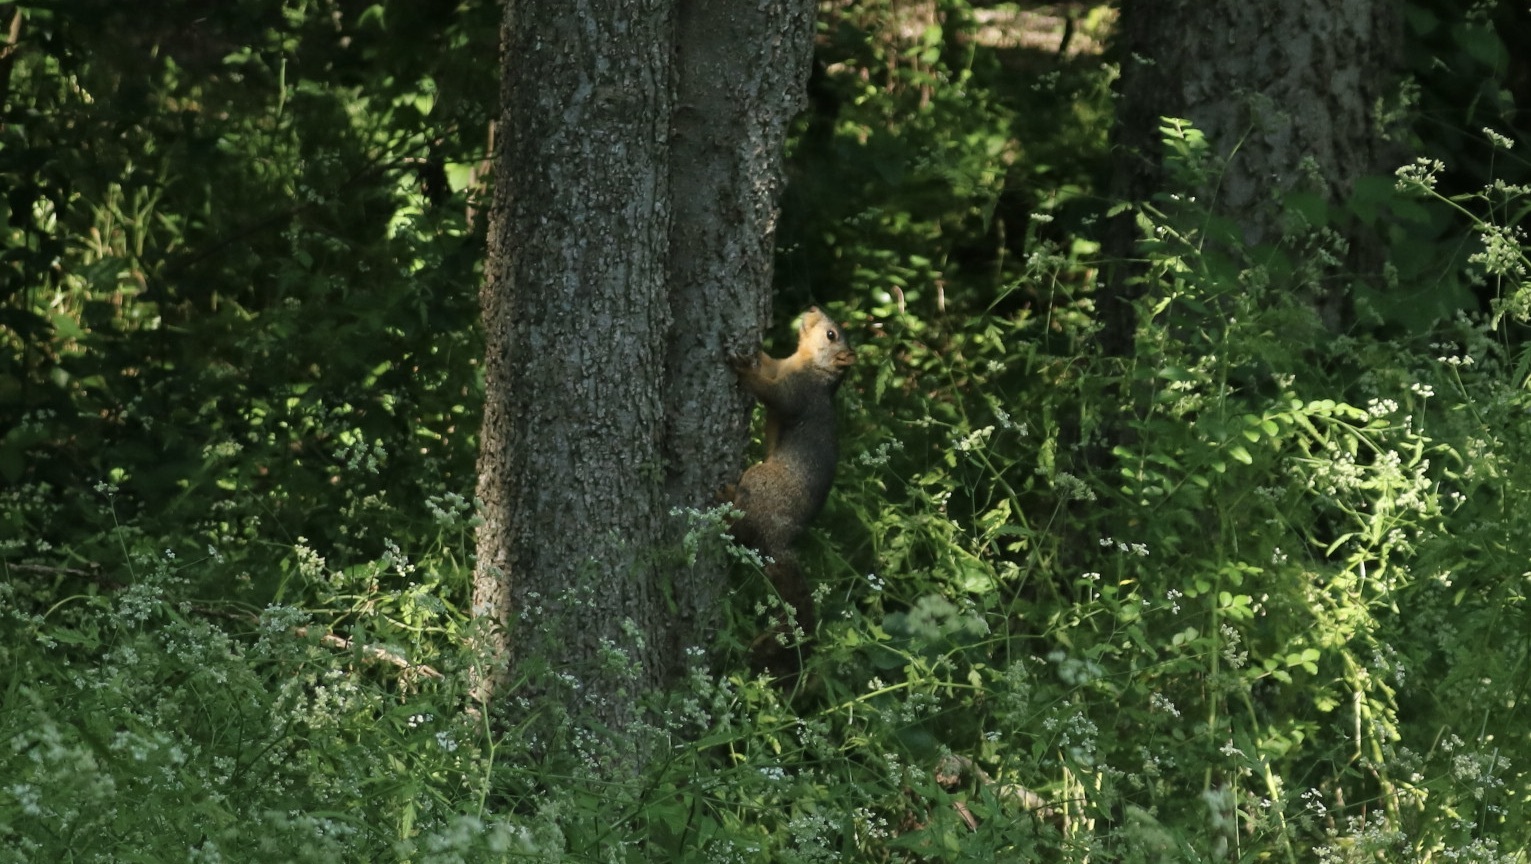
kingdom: Animalia
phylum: Chordata
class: Mammalia
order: Rodentia
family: Sciuridae
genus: Sciurus
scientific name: Sciurus niger
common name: Fox squirrel
